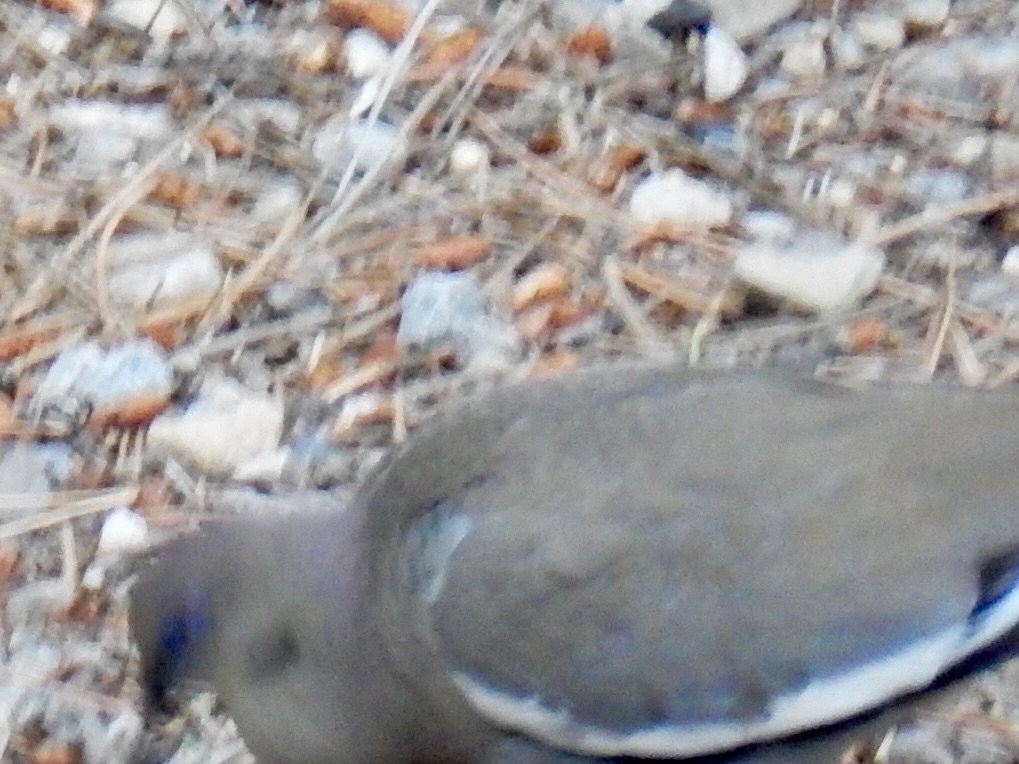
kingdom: Animalia
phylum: Chordata
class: Aves
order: Columbiformes
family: Columbidae
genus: Zenaida
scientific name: Zenaida asiatica
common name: White-winged dove
